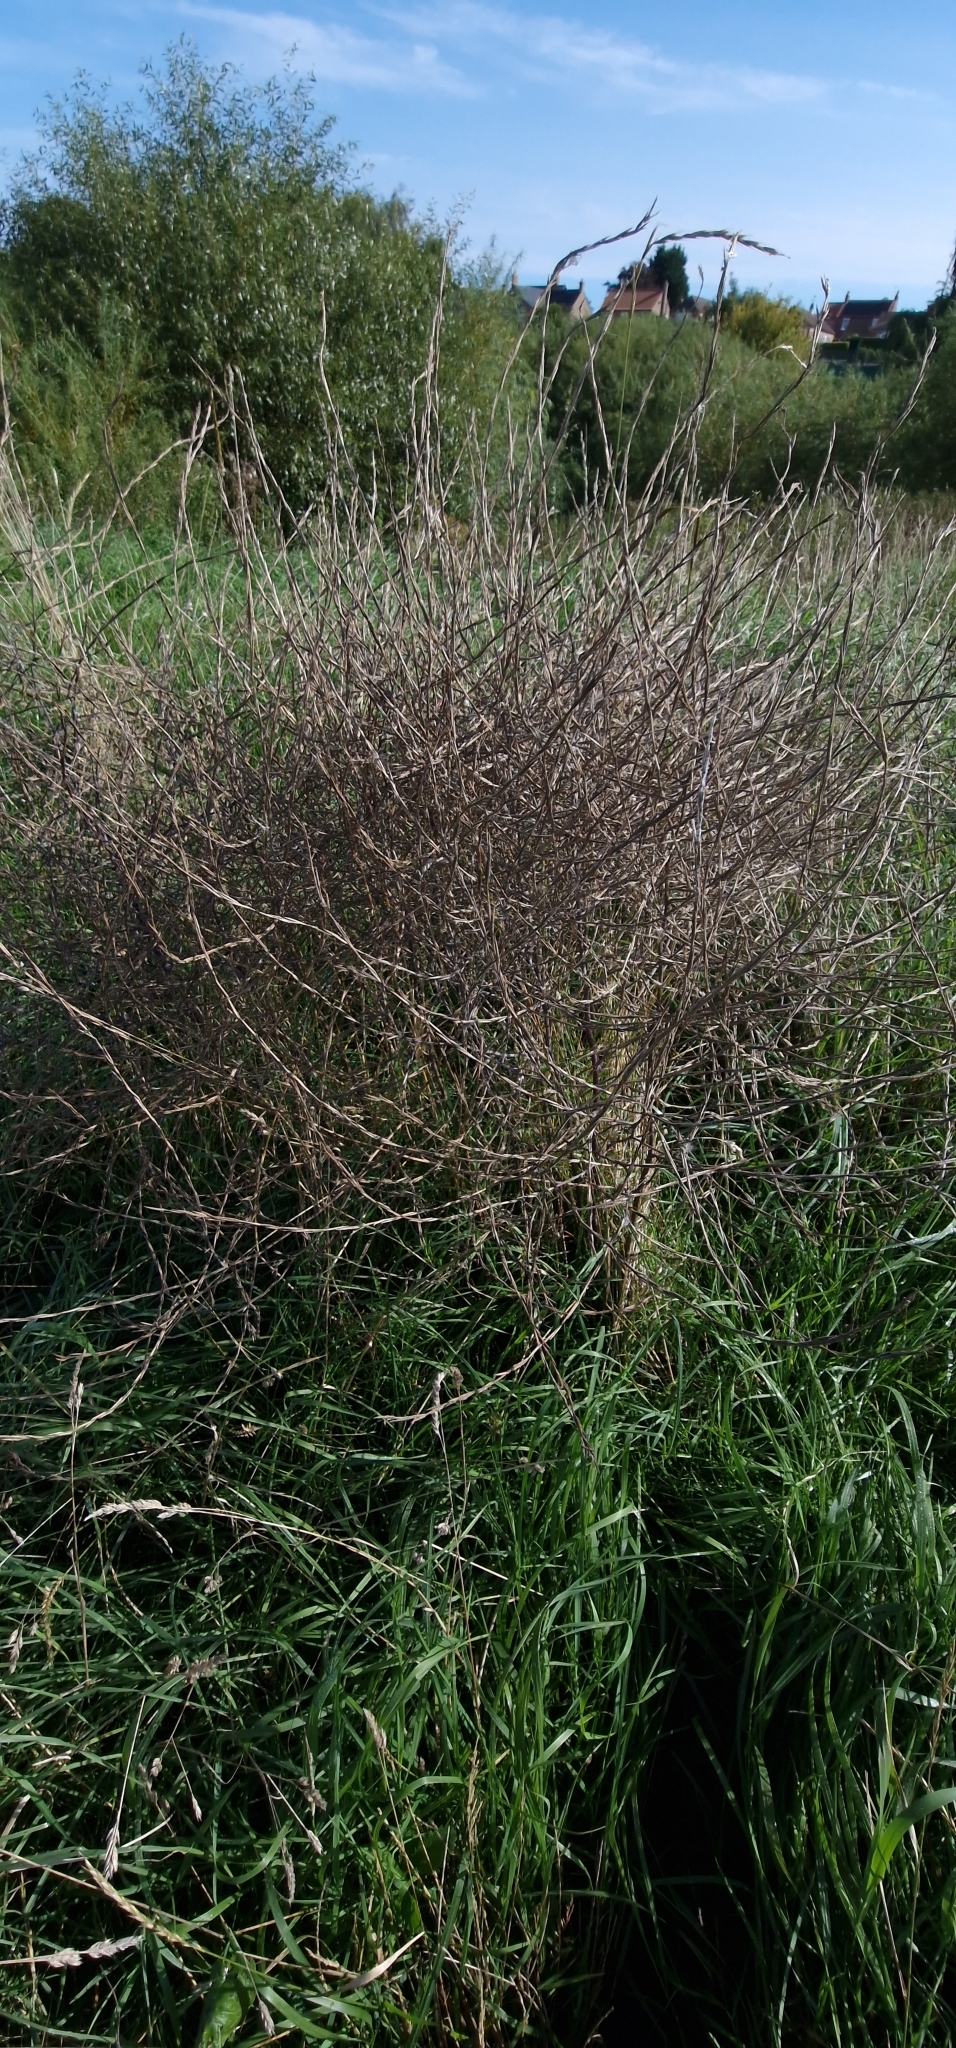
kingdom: Plantae
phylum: Tracheophyta
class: Magnoliopsida
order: Brassicales
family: Brassicaceae
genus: Sisymbrium
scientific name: Sisymbrium officinale
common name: Hedge mustard
